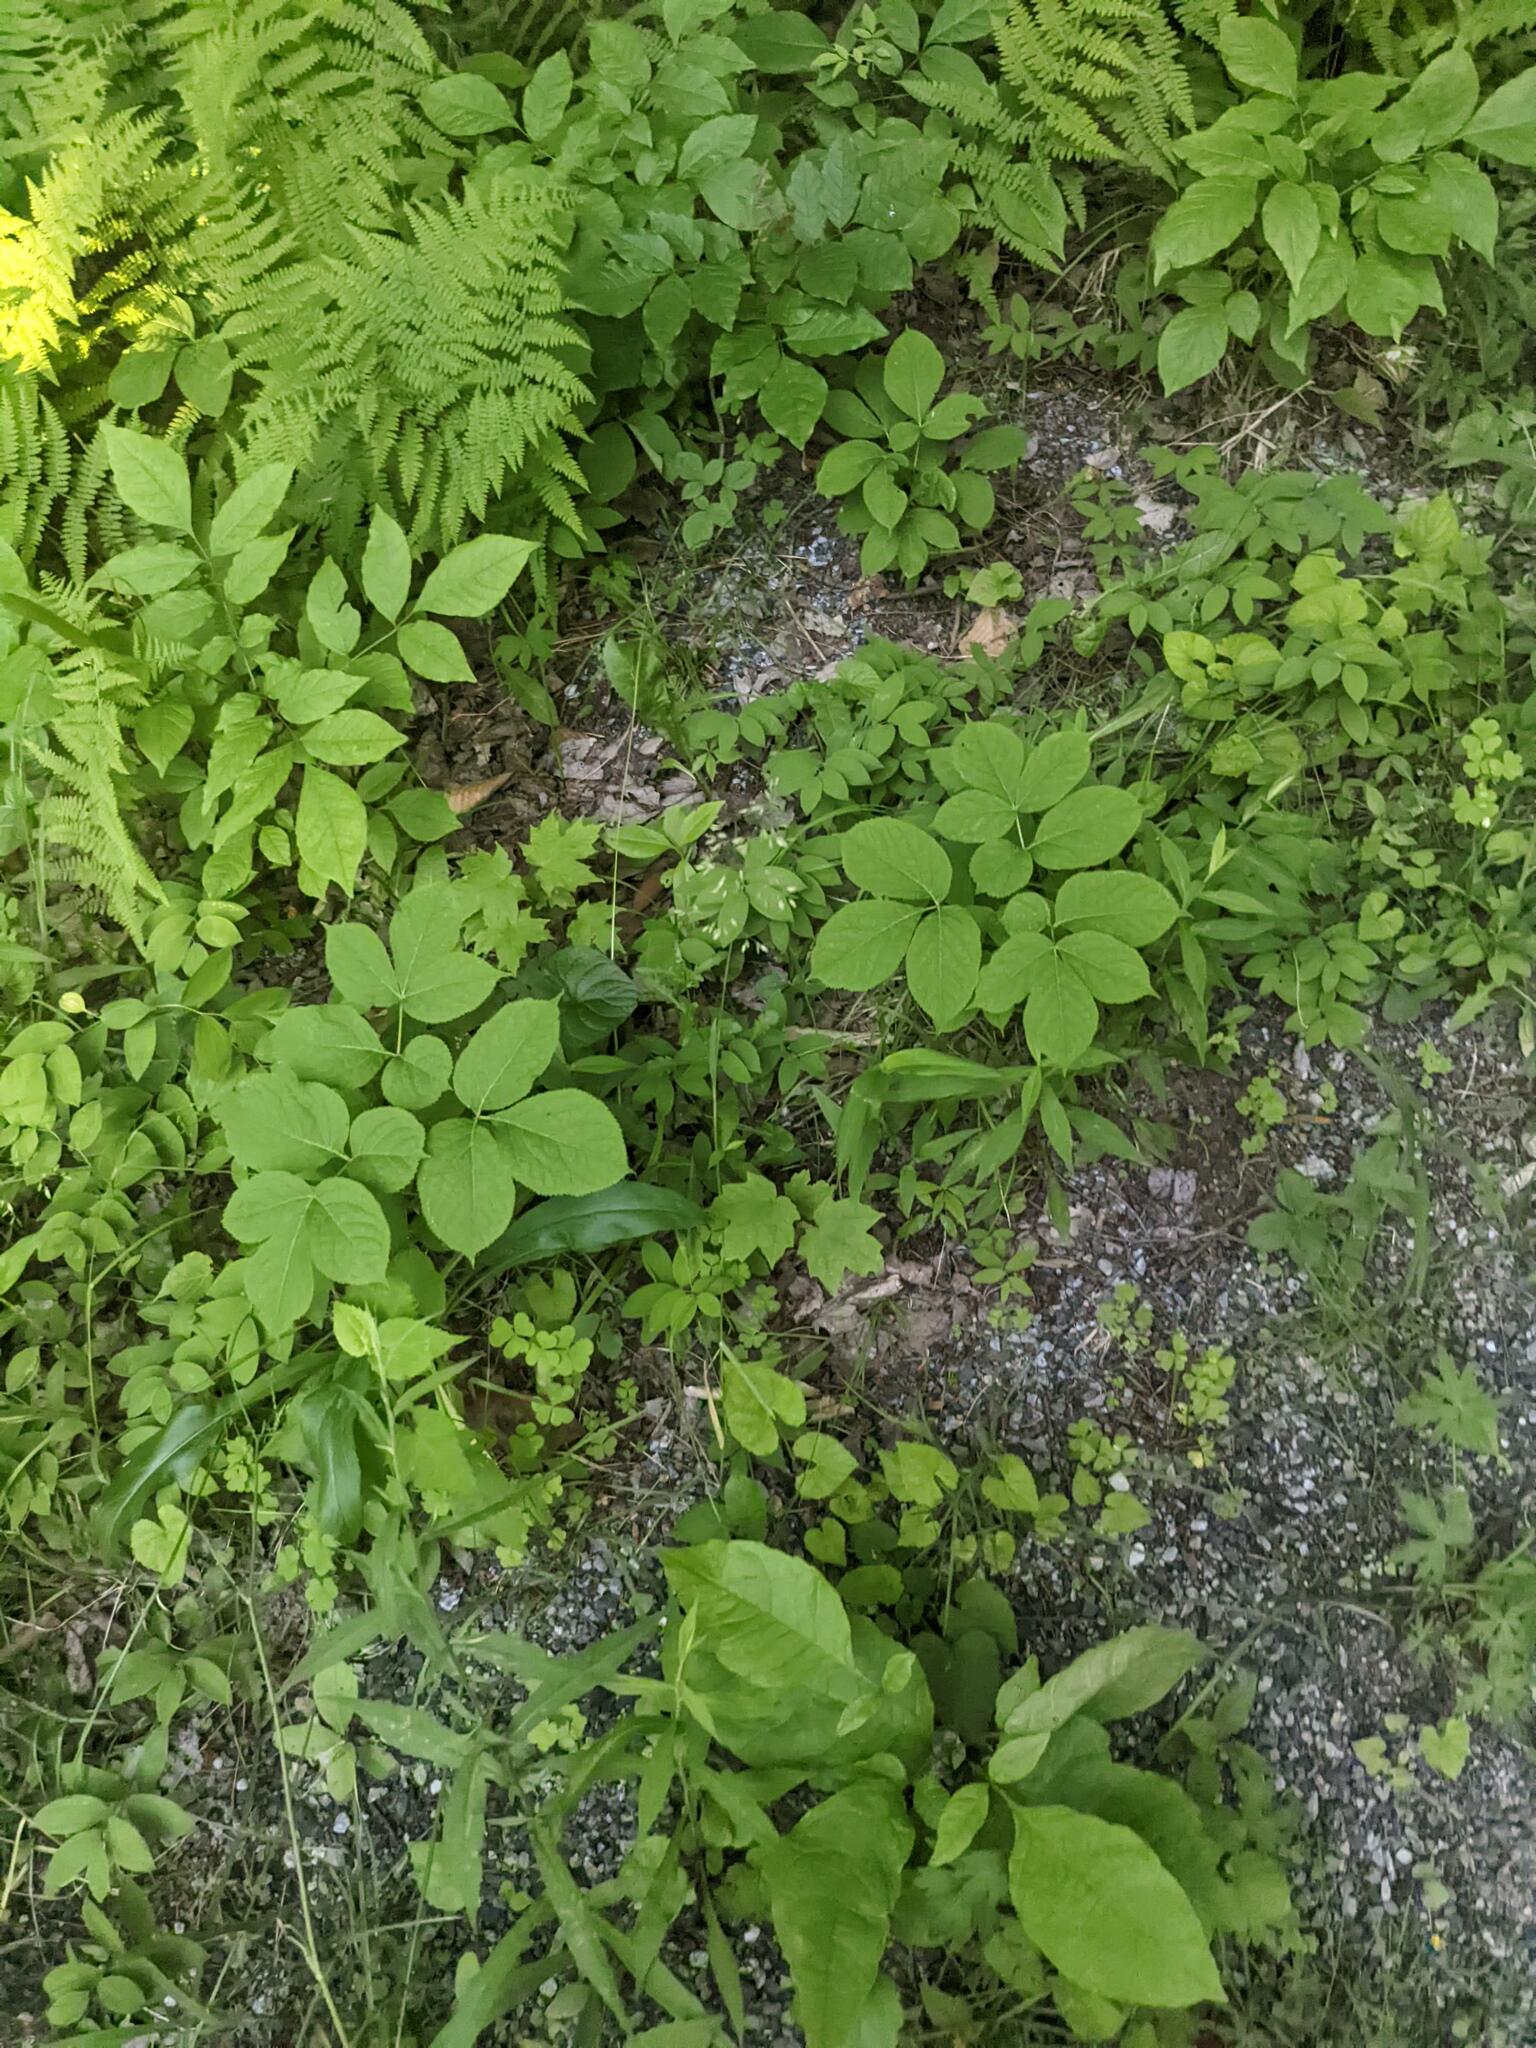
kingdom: Plantae
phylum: Tracheophyta
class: Magnoliopsida
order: Apiales
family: Araliaceae
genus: Aralia
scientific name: Aralia nudicaulis
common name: Wild sarsaparilla
